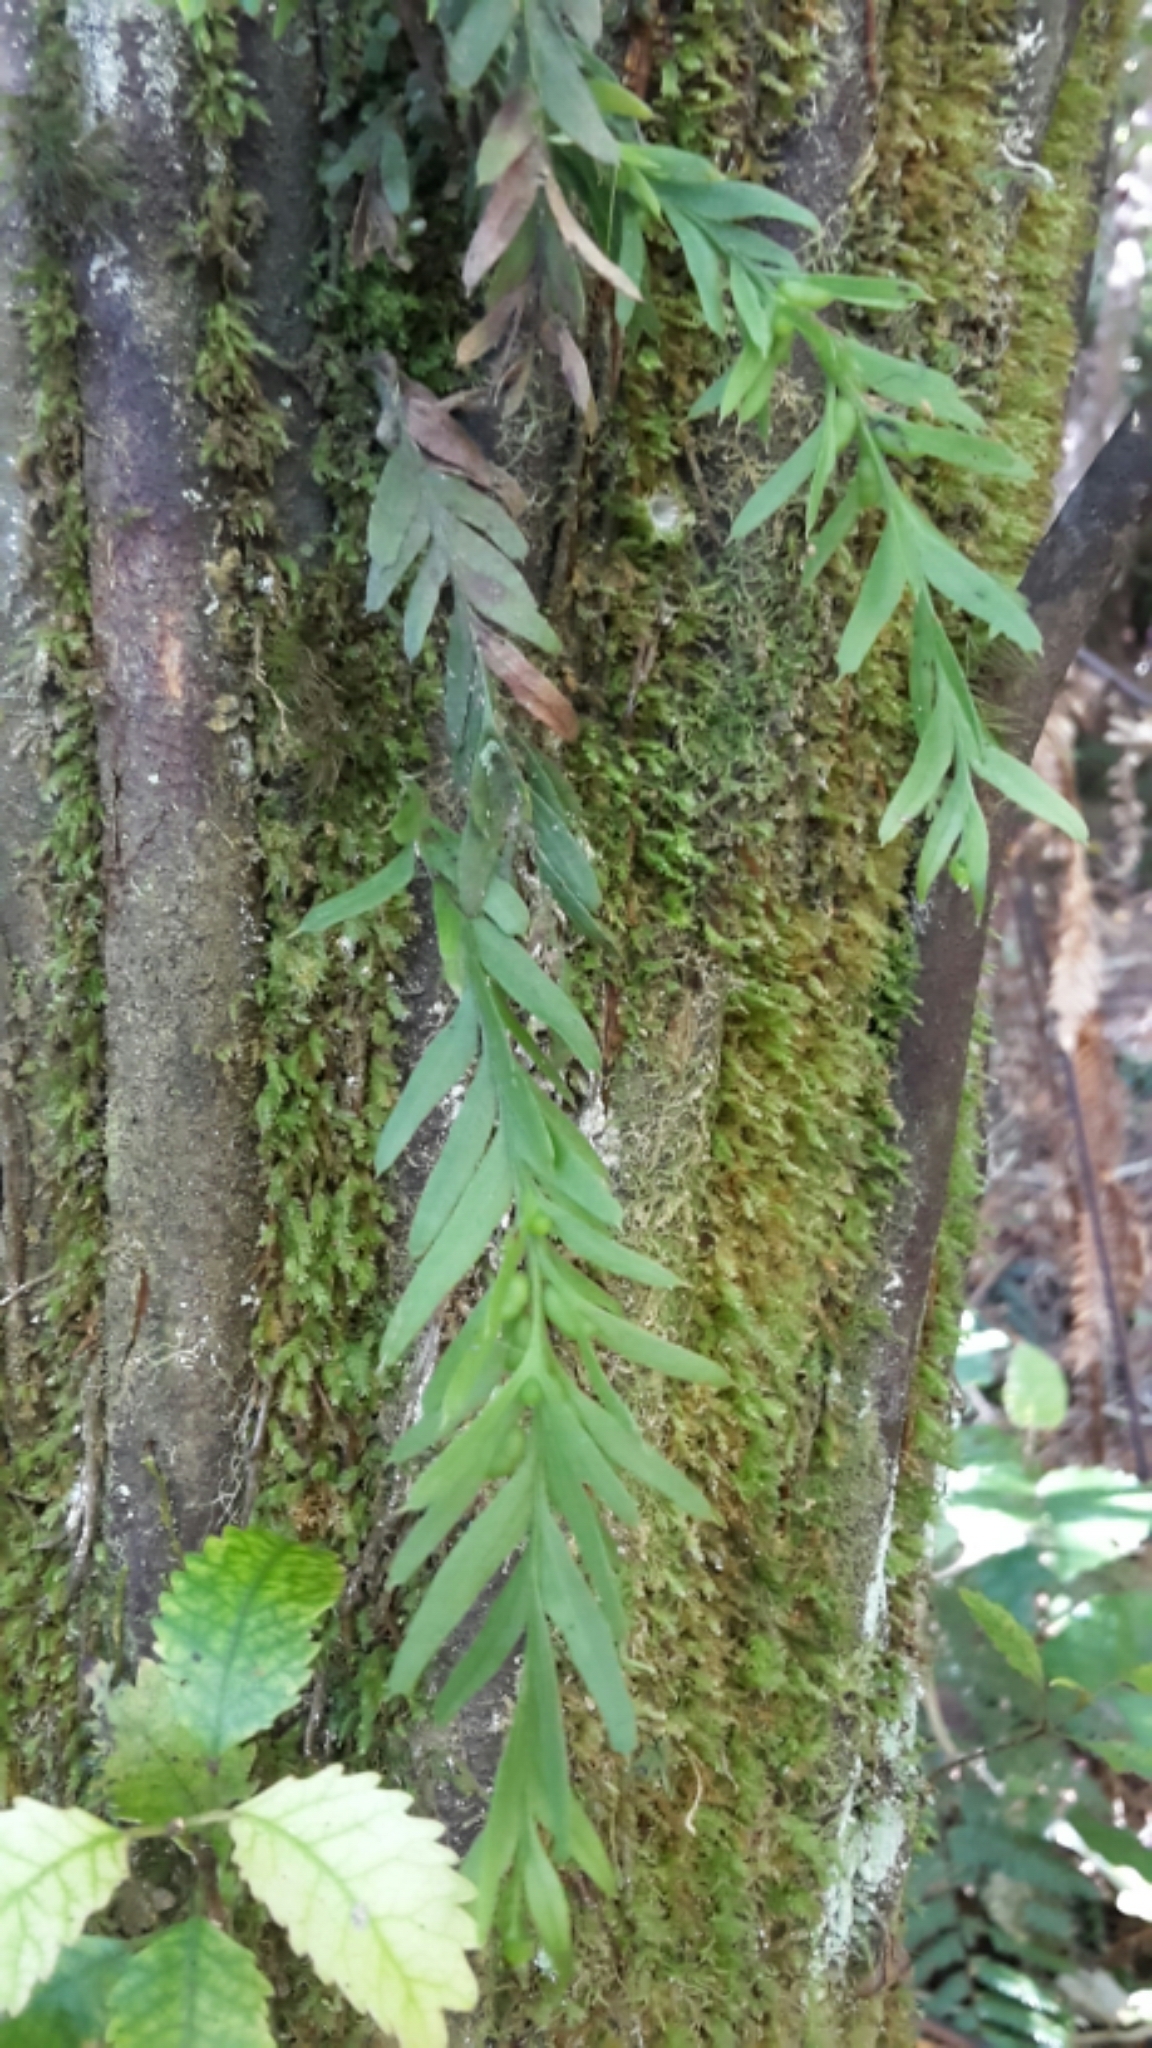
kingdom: Plantae
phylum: Tracheophyta
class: Polypodiopsida
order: Psilotales
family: Psilotaceae
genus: Tmesipteris
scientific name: Tmesipteris elongata
